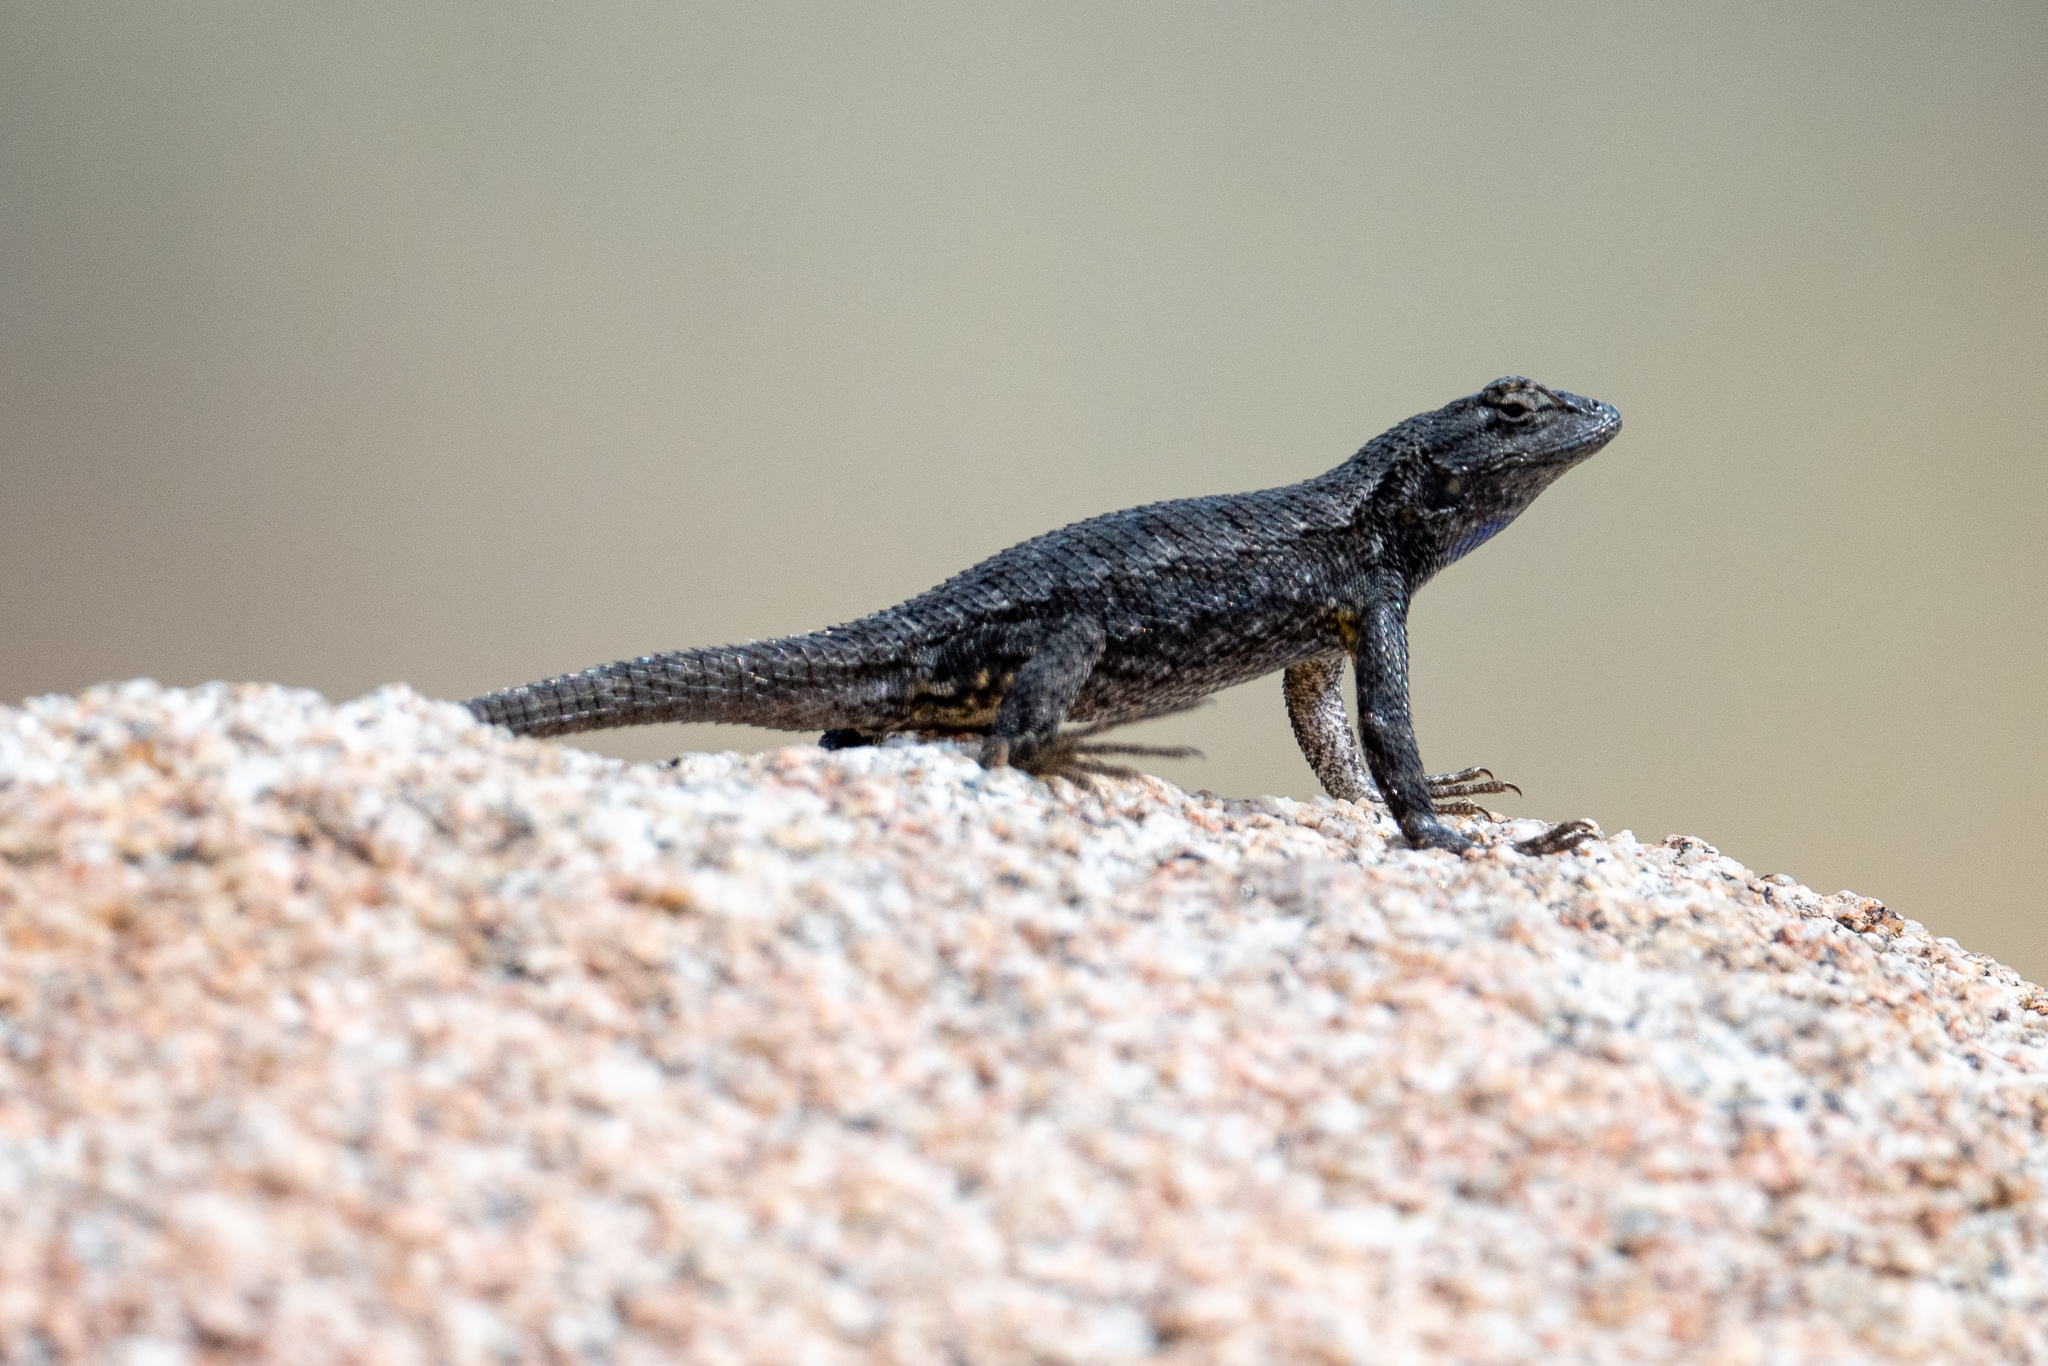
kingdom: Animalia
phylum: Chordata
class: Squamata
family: Phrynosomatidae
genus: Sceloporus
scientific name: Sceloporus occidentalis
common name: Western fence lizard
